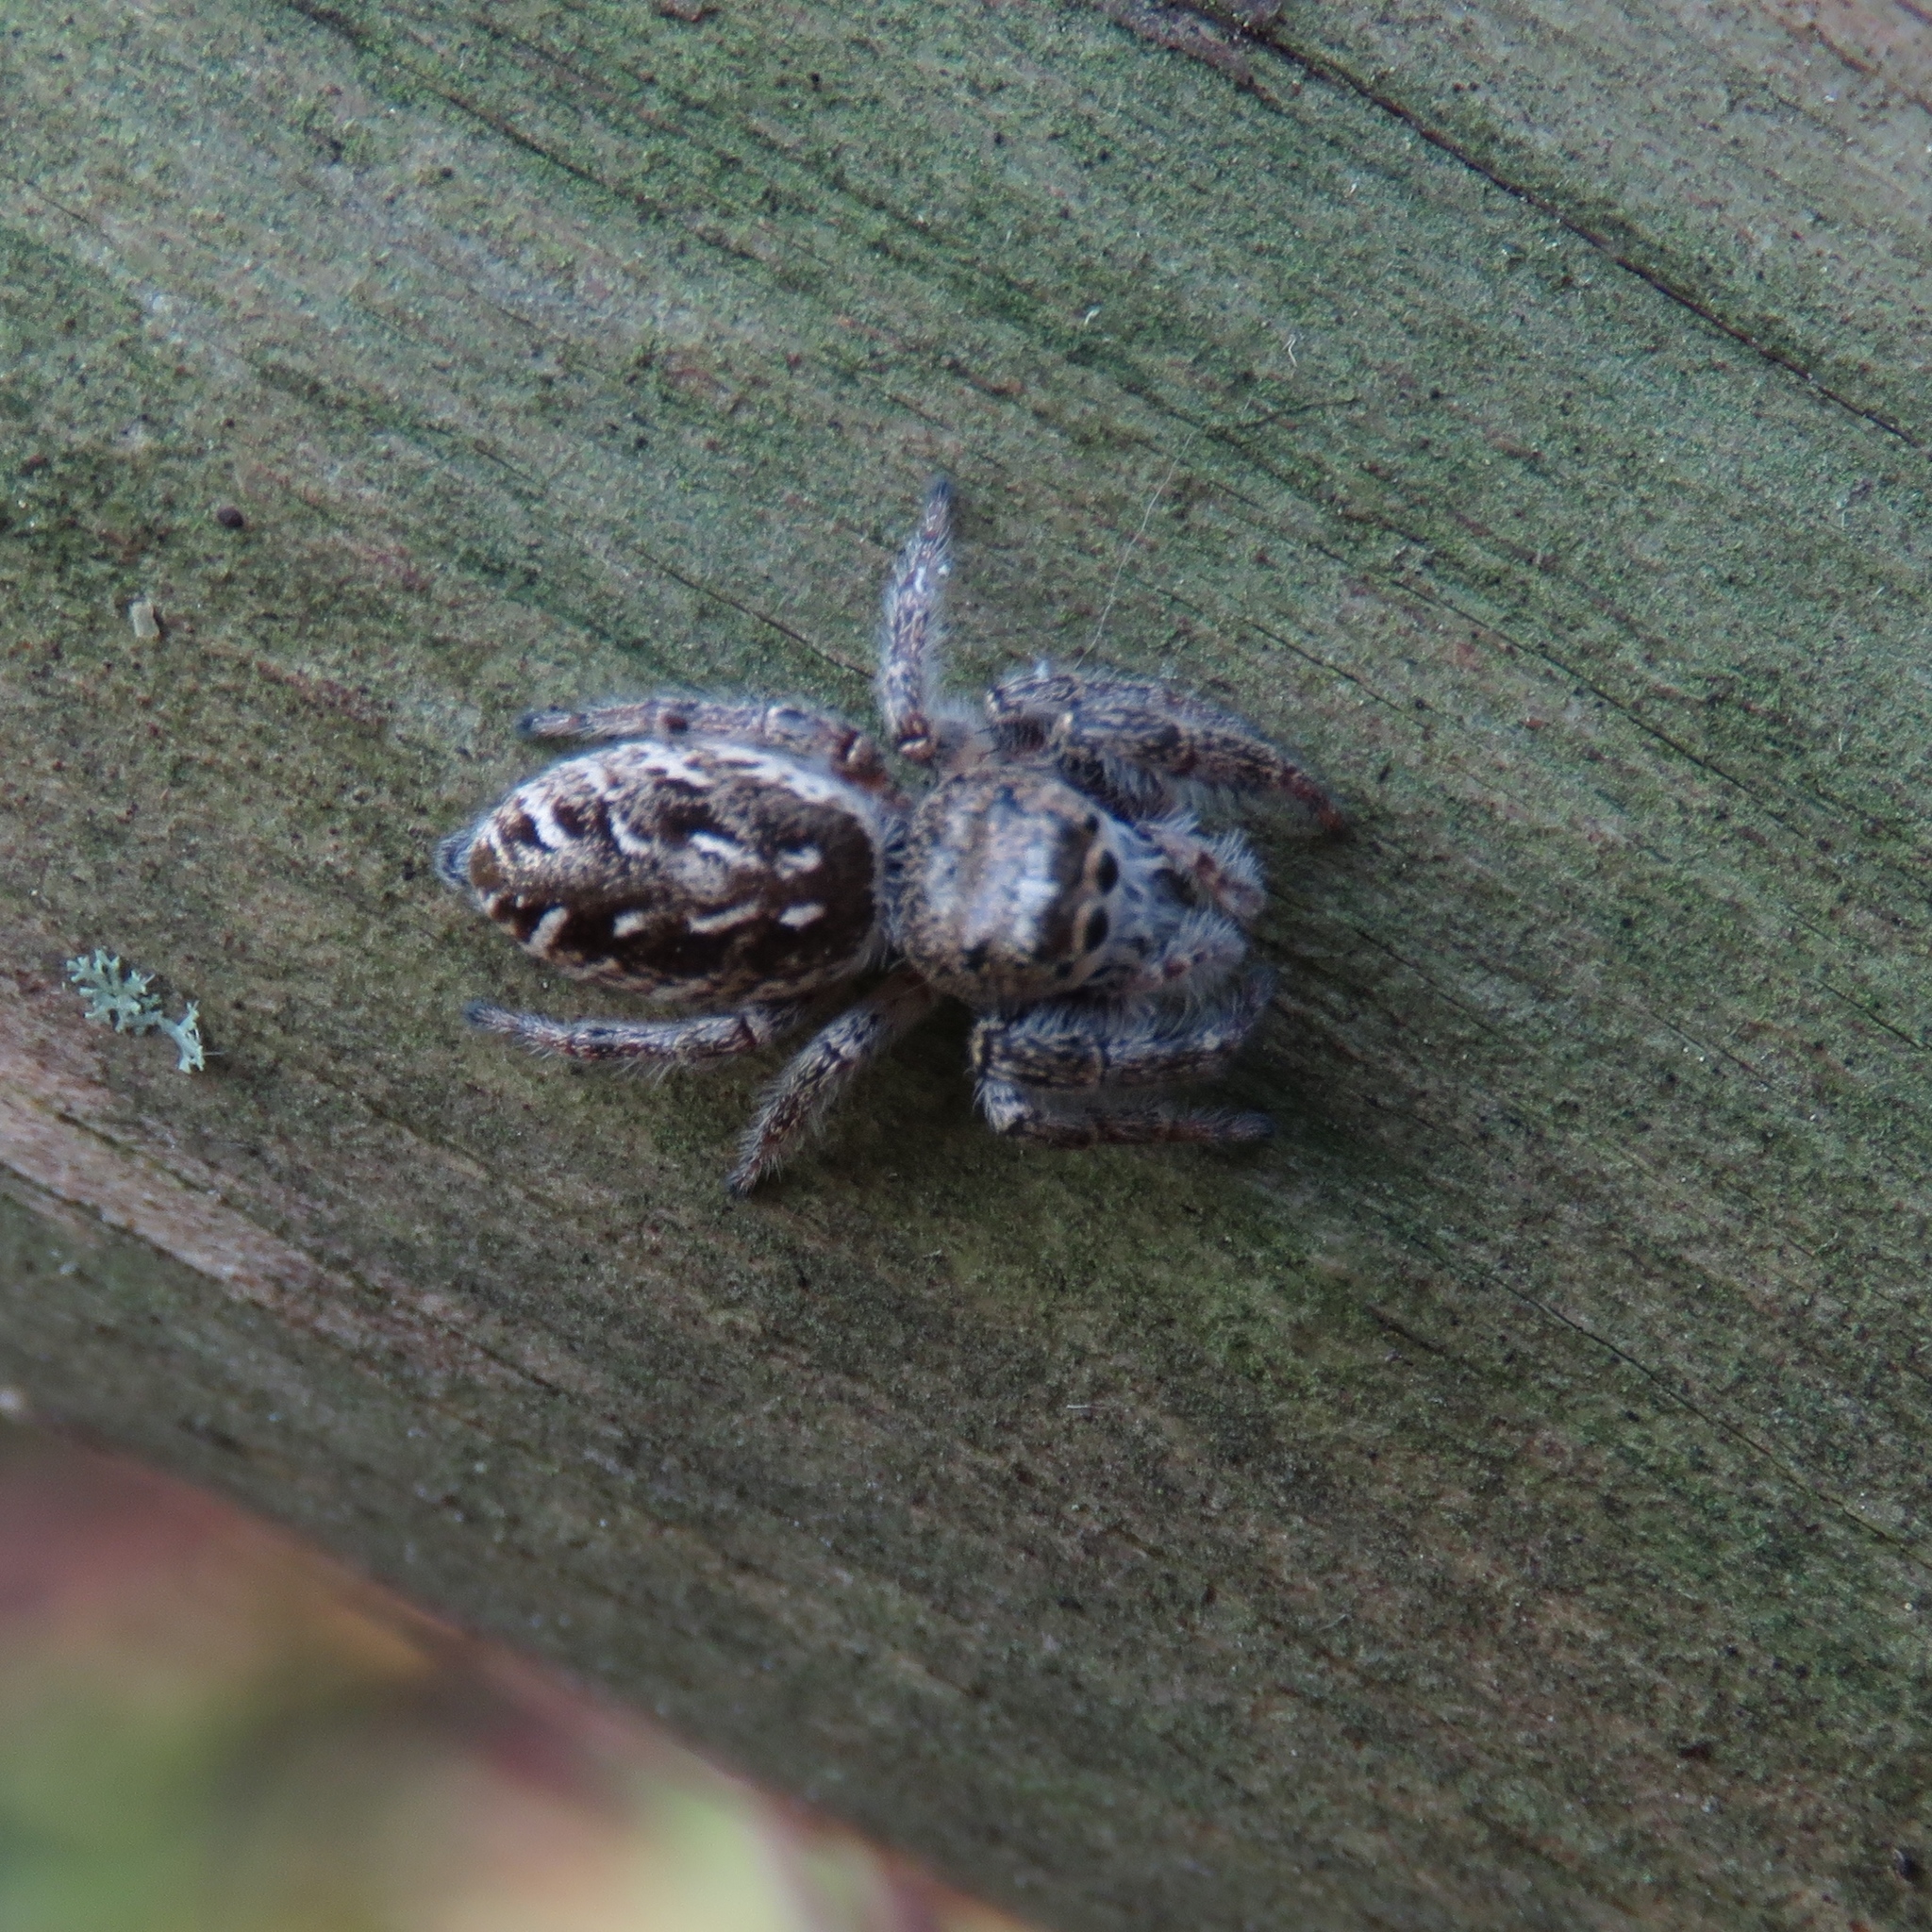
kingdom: Animalia
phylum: Arthropoda
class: Arachnida
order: Araneae
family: Salticidae
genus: Eris
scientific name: Eris militaris
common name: Bronze jumper
